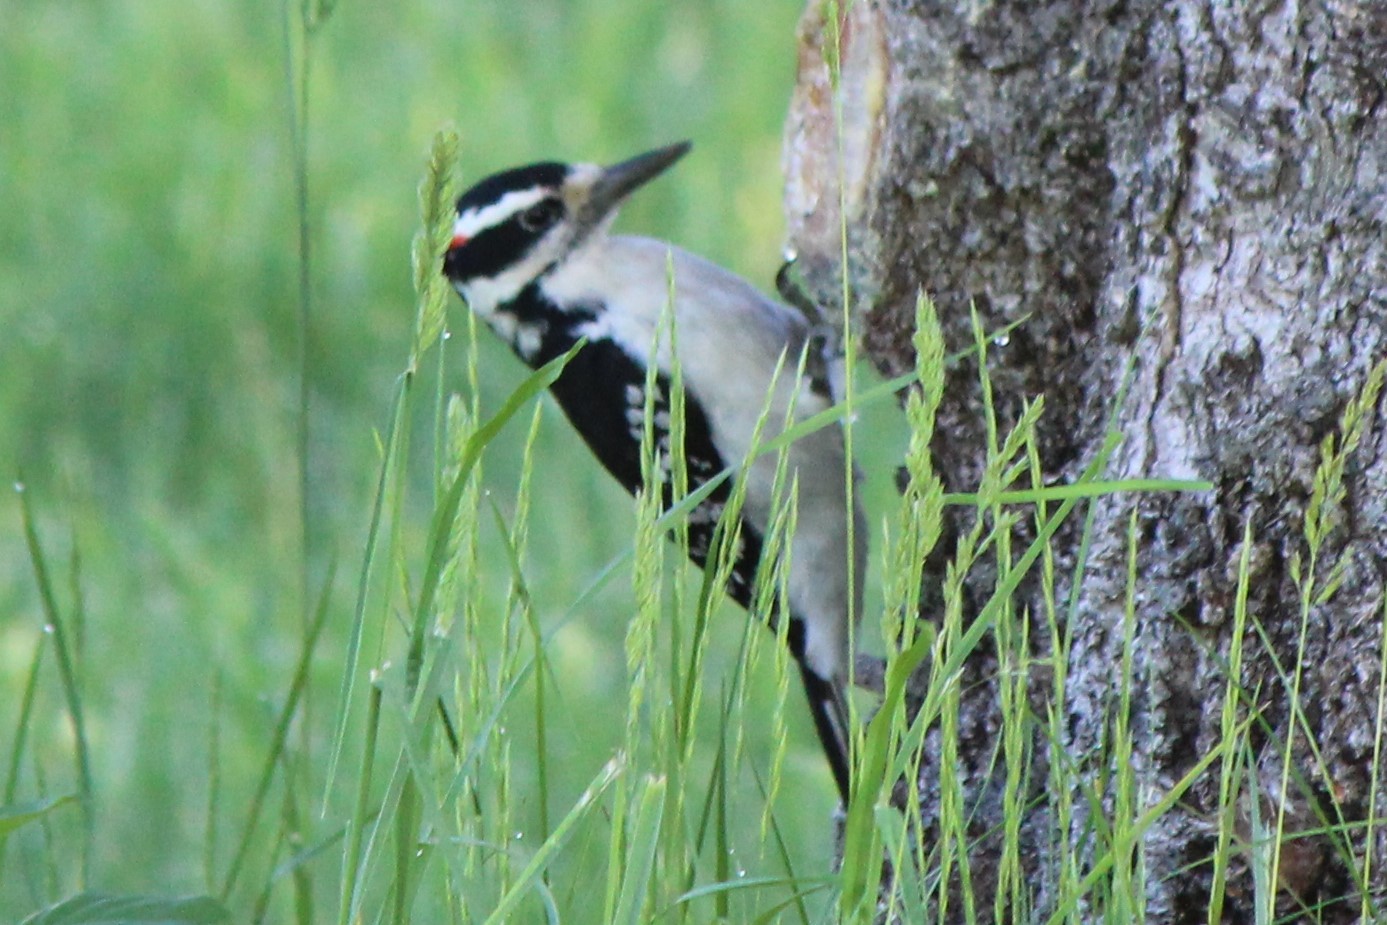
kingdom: Animalia
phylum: Chordata
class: Aves
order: Piciformes
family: Picidae
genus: Leuconotopicus
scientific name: Leuconotopicus villosus
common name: Hairy woodpecker
